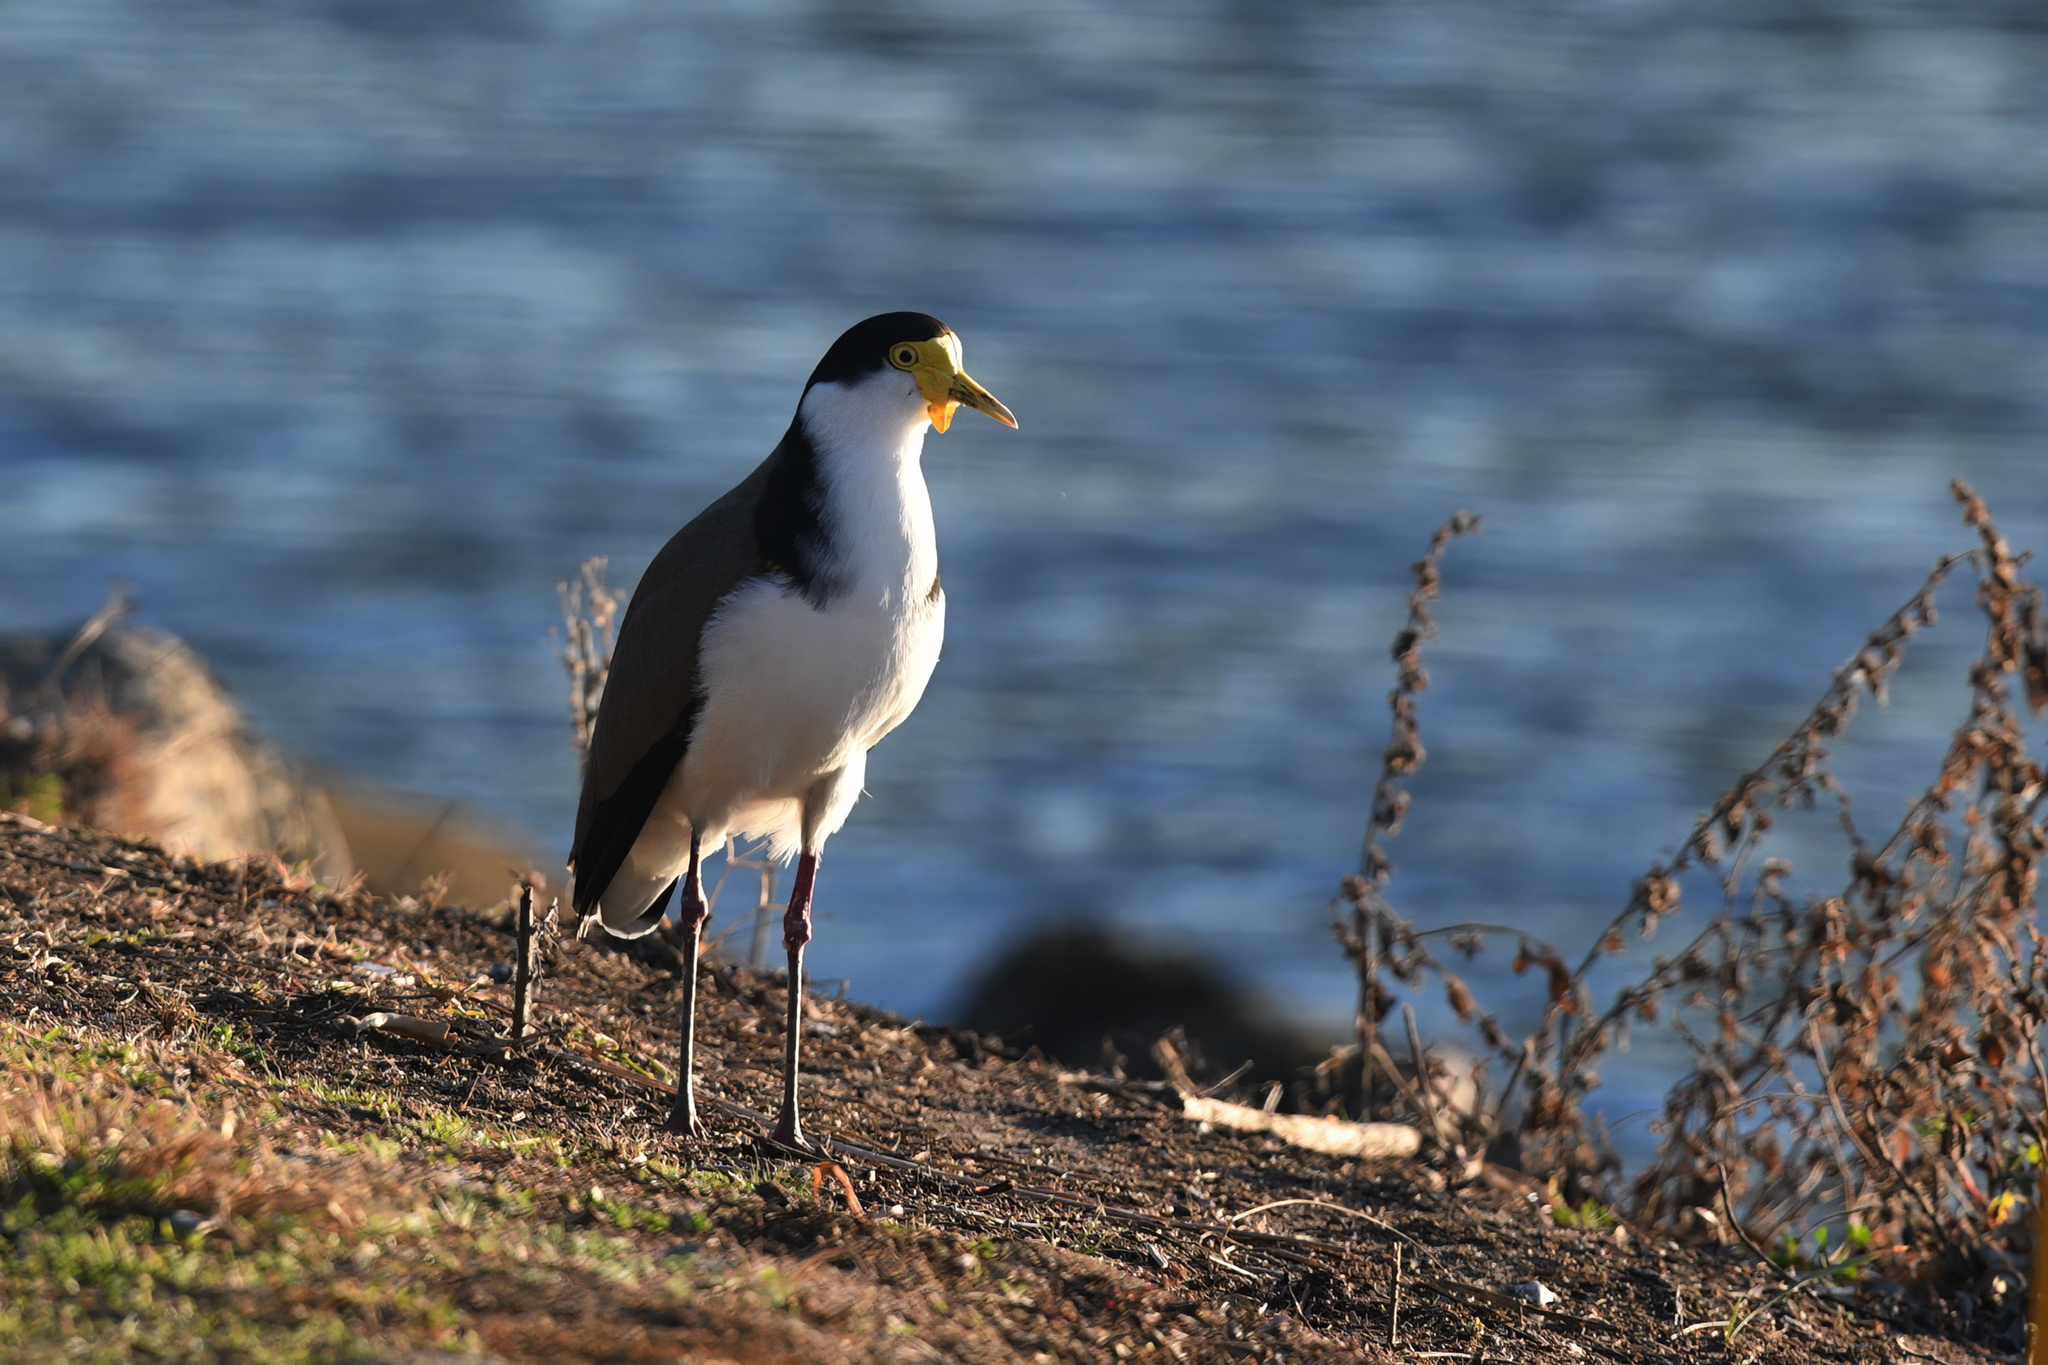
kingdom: Animalia
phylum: Chordata
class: Aves
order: Charadriiformes
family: Charadriidae
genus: Vanellus
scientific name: Vanellus miles
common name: Masked lapwing
